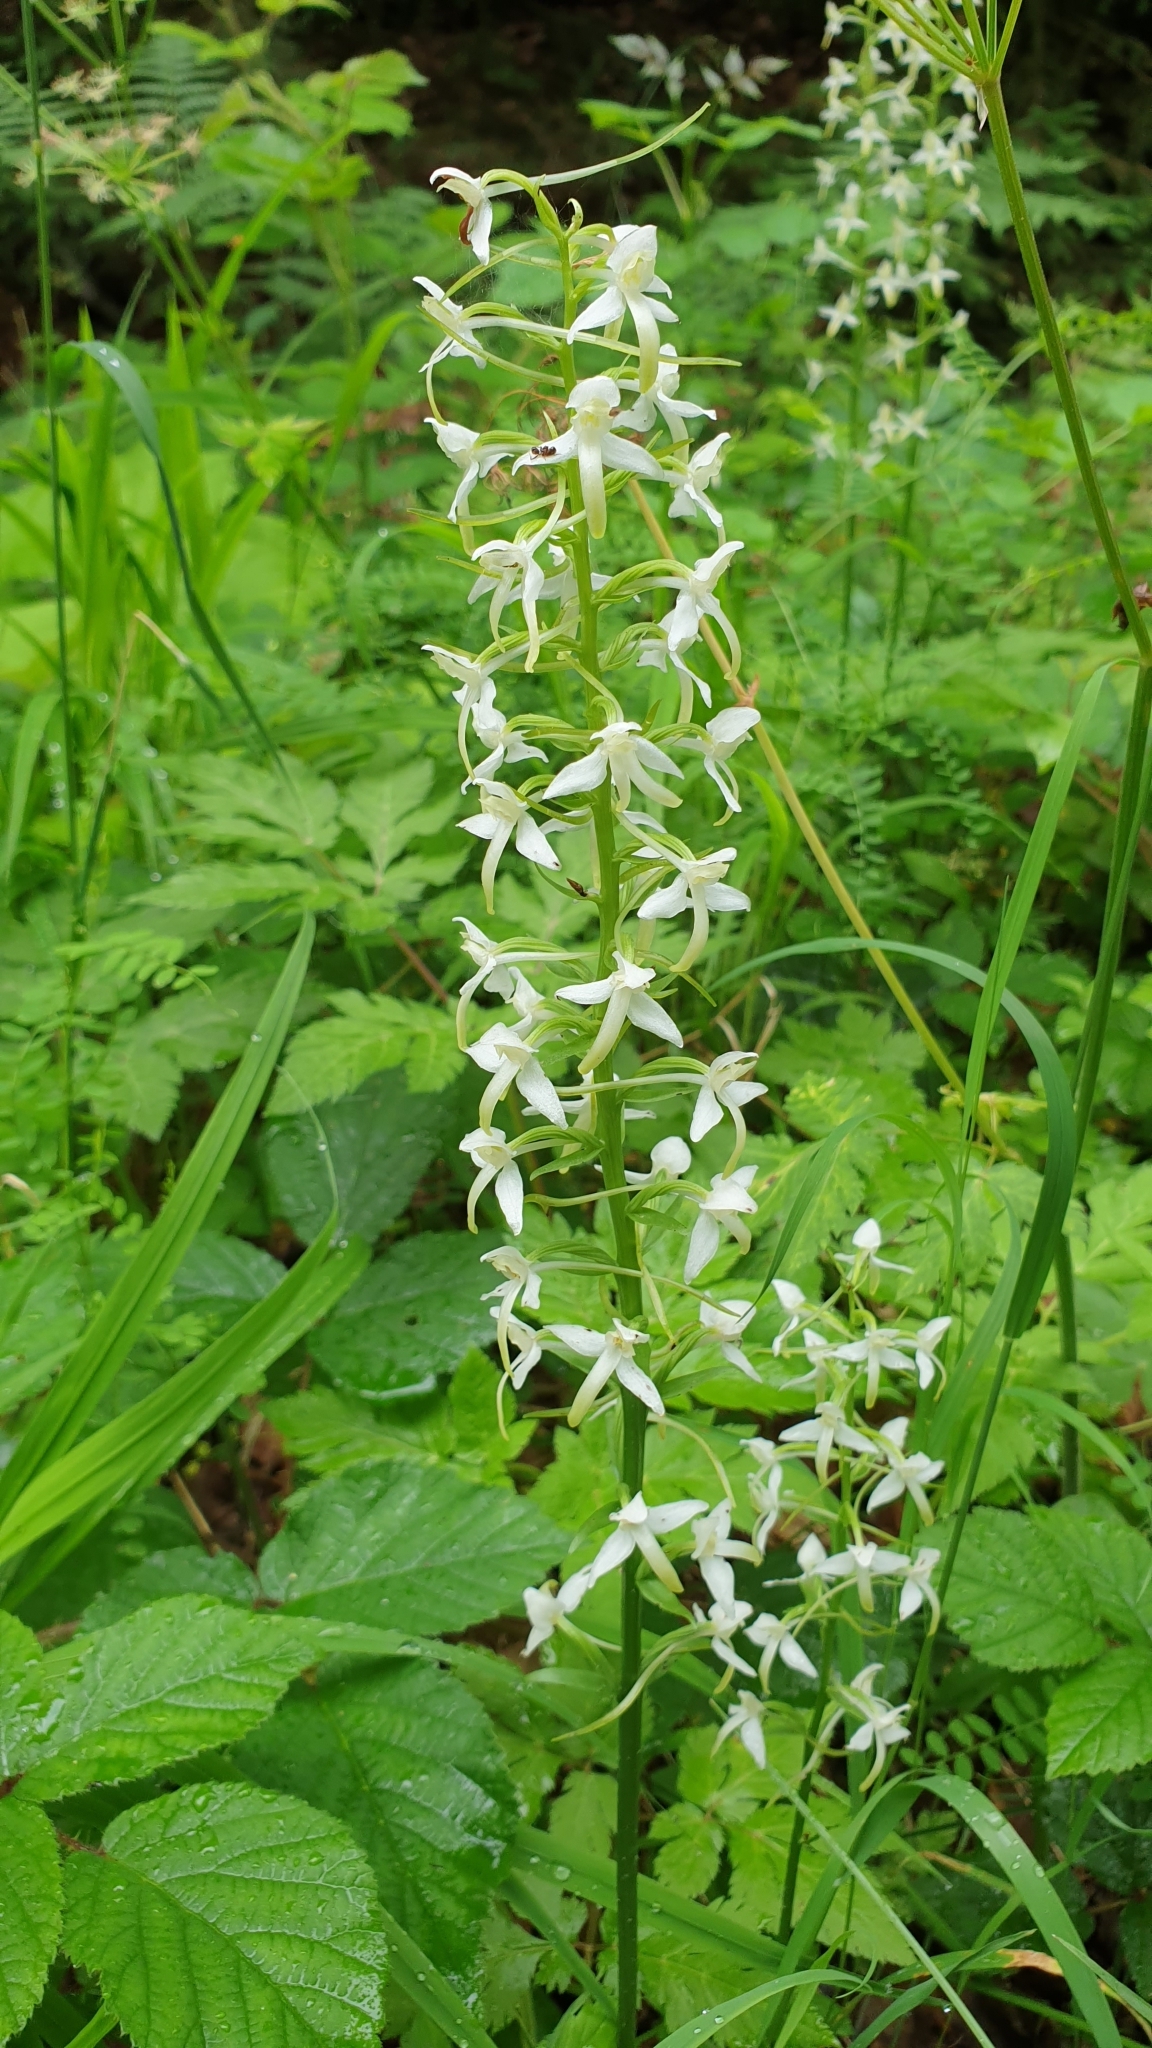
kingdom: Plantae
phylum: Tracheophyta
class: Liliopsida
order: Asparagales
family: Orchidaceae
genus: Platanthera
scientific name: Platanthera bifolia
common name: Lesser butterfly-orchid
